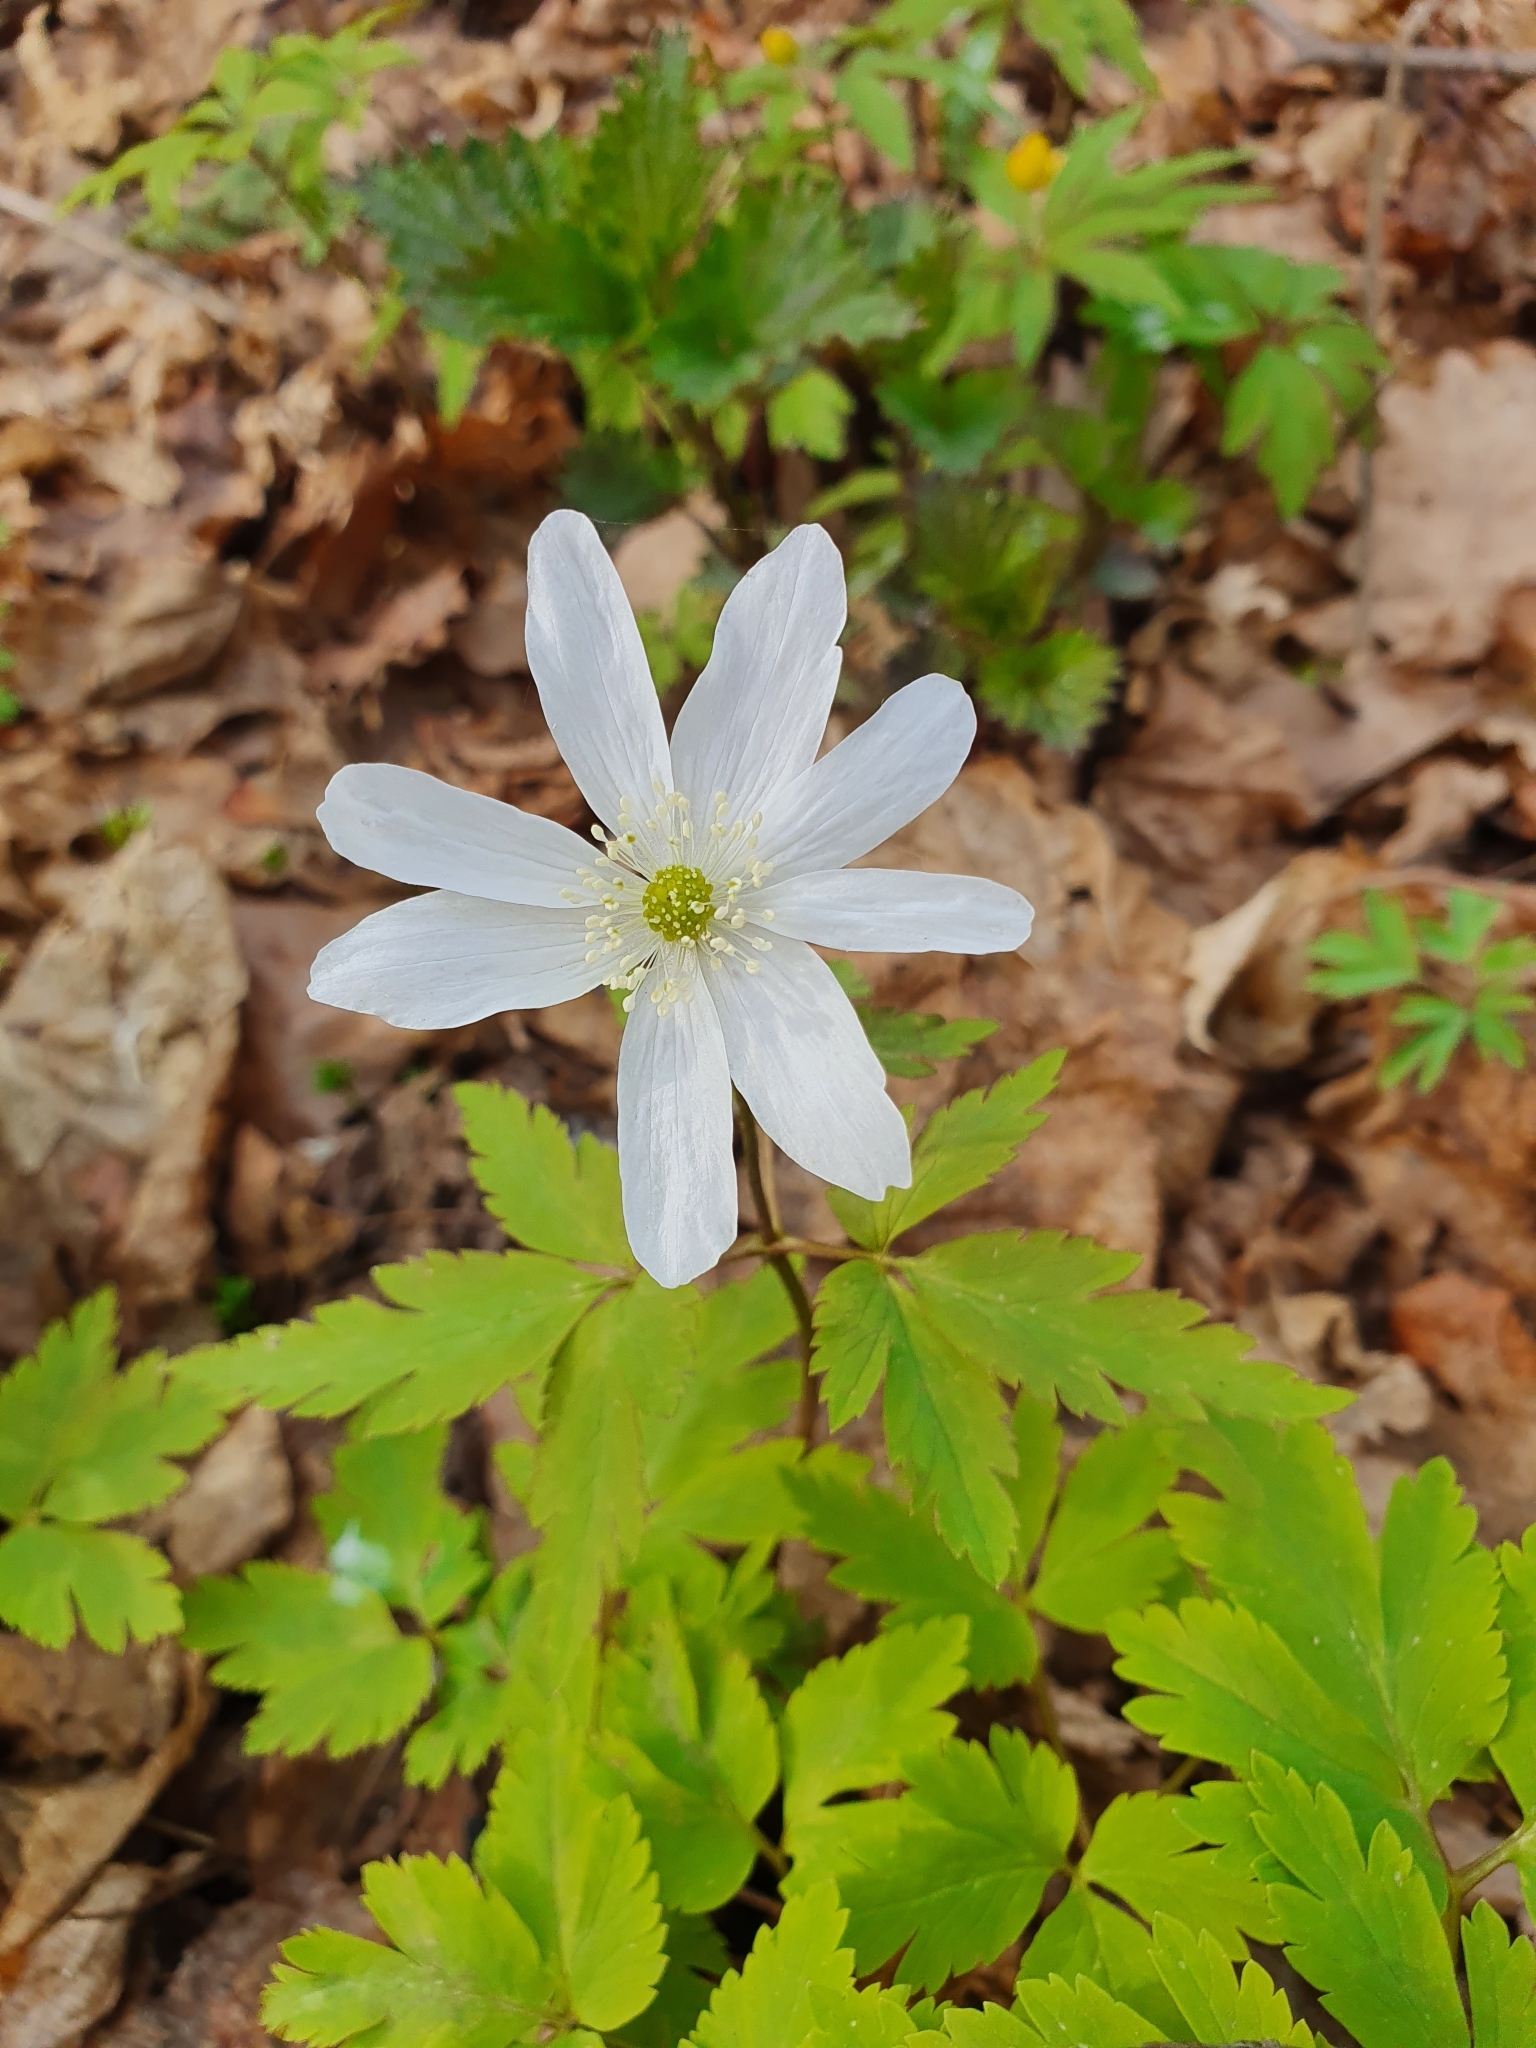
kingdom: Plantae
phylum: Tracheophyta
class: Magnoliopsida
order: Ranunculales
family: Ranunculaceae
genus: Anemone
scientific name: Anemone altaica
